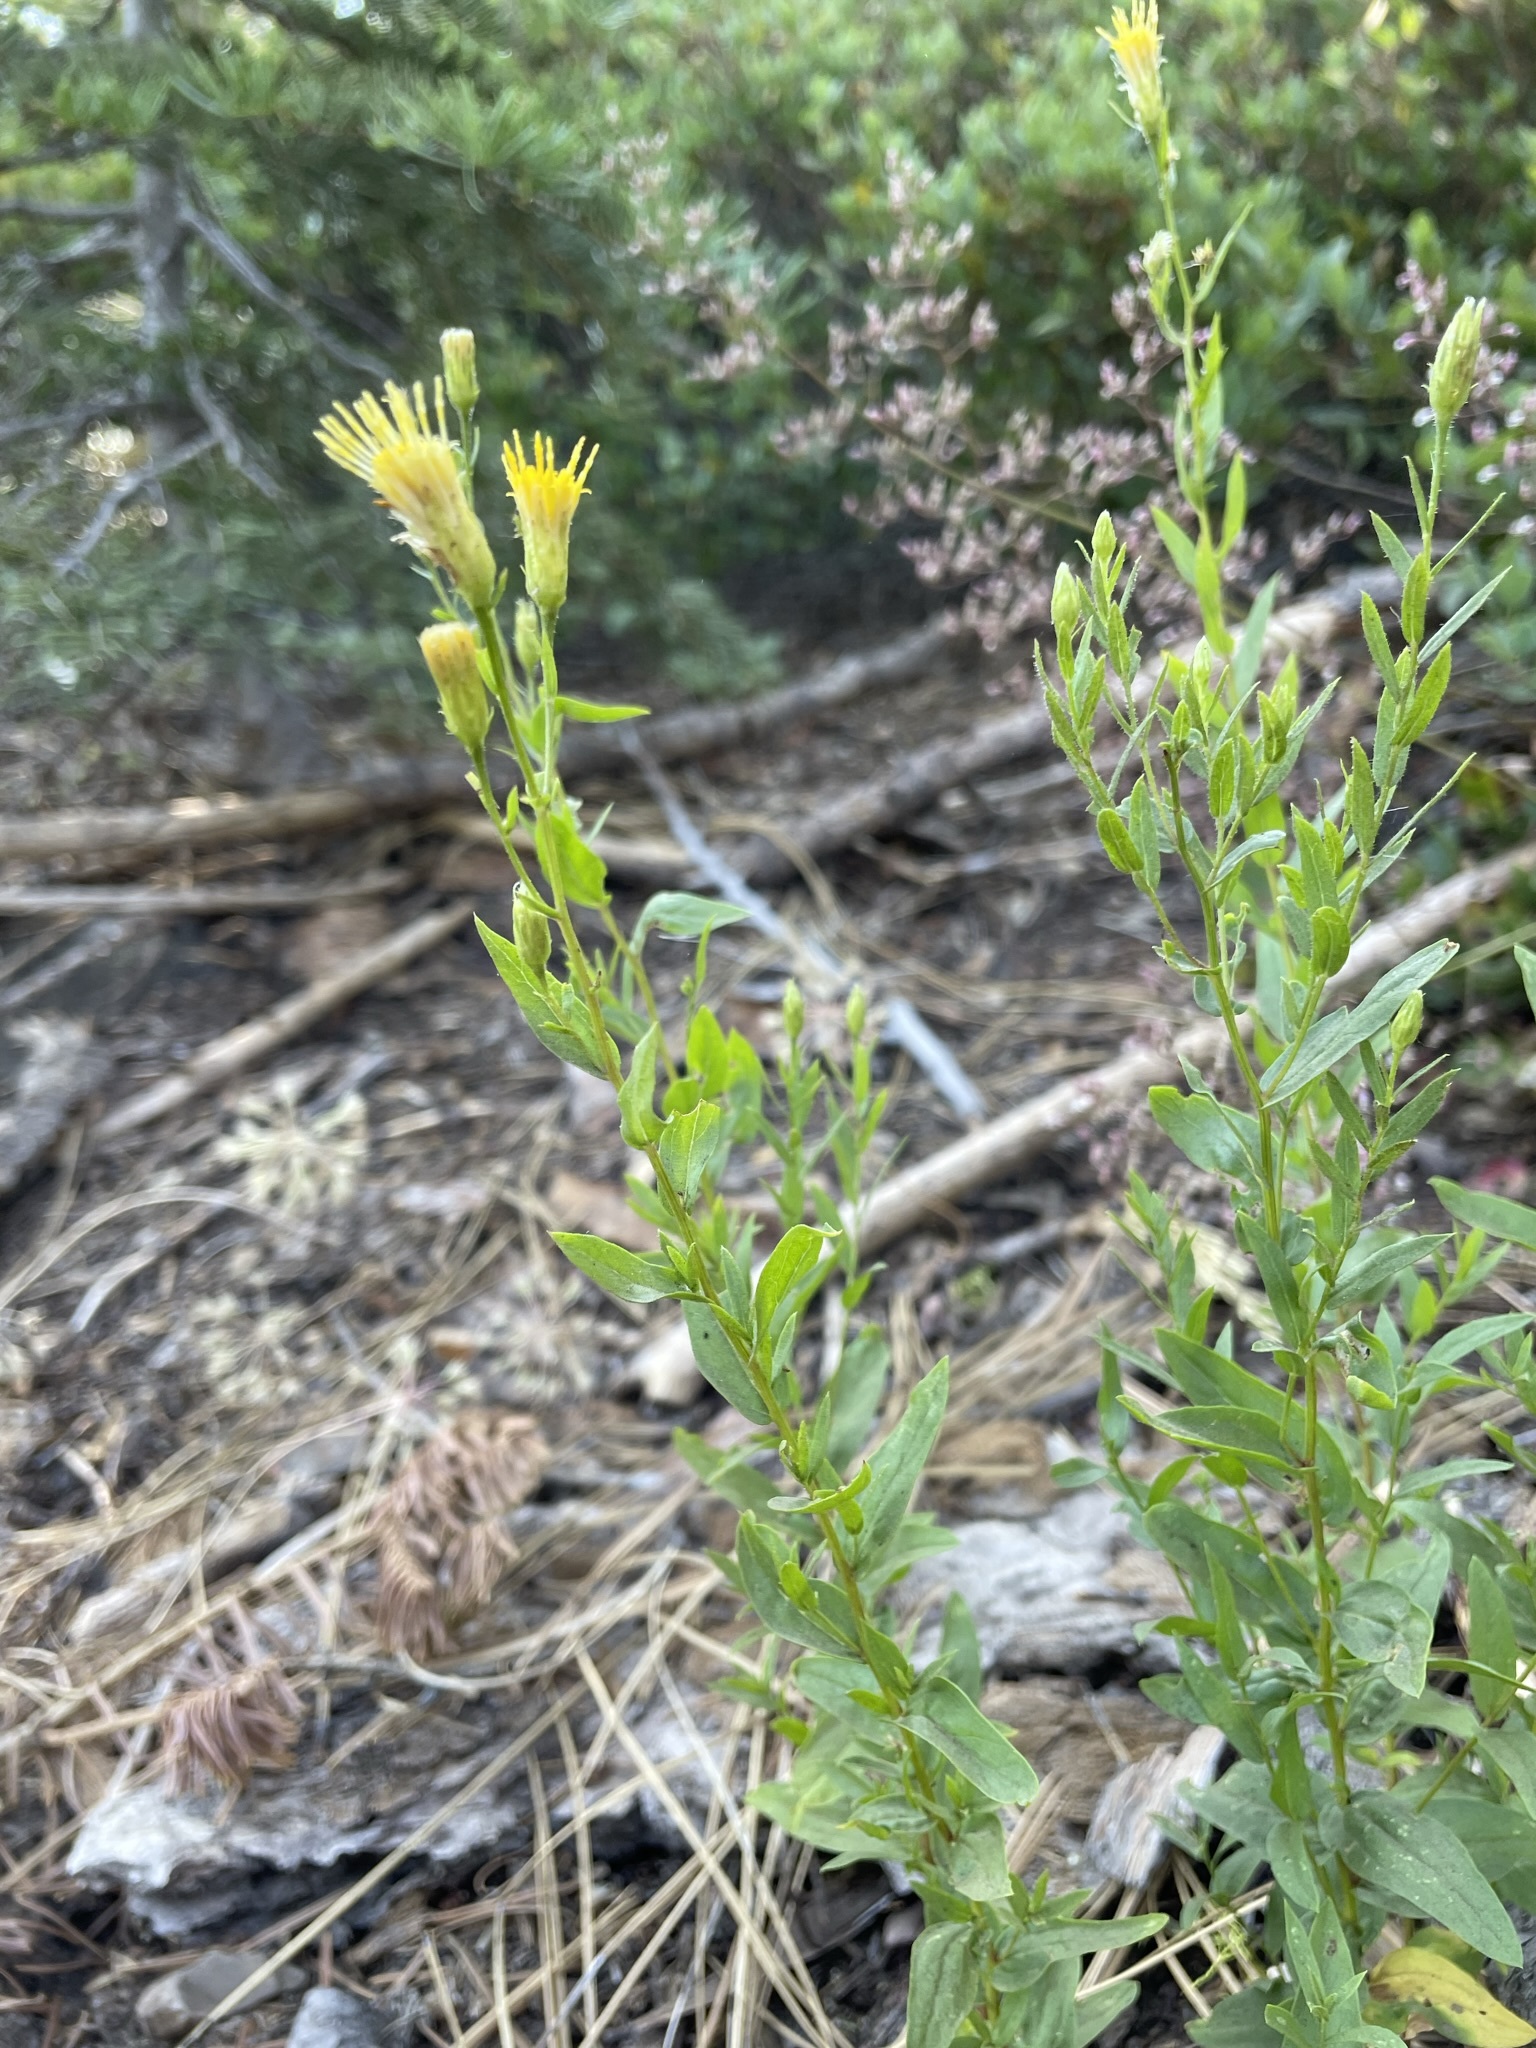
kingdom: Plantae
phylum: Tracheophyta
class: Magnoliopsida
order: Asterales
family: Asteraceae
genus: Eucephalus
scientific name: Eucephalus breweri
